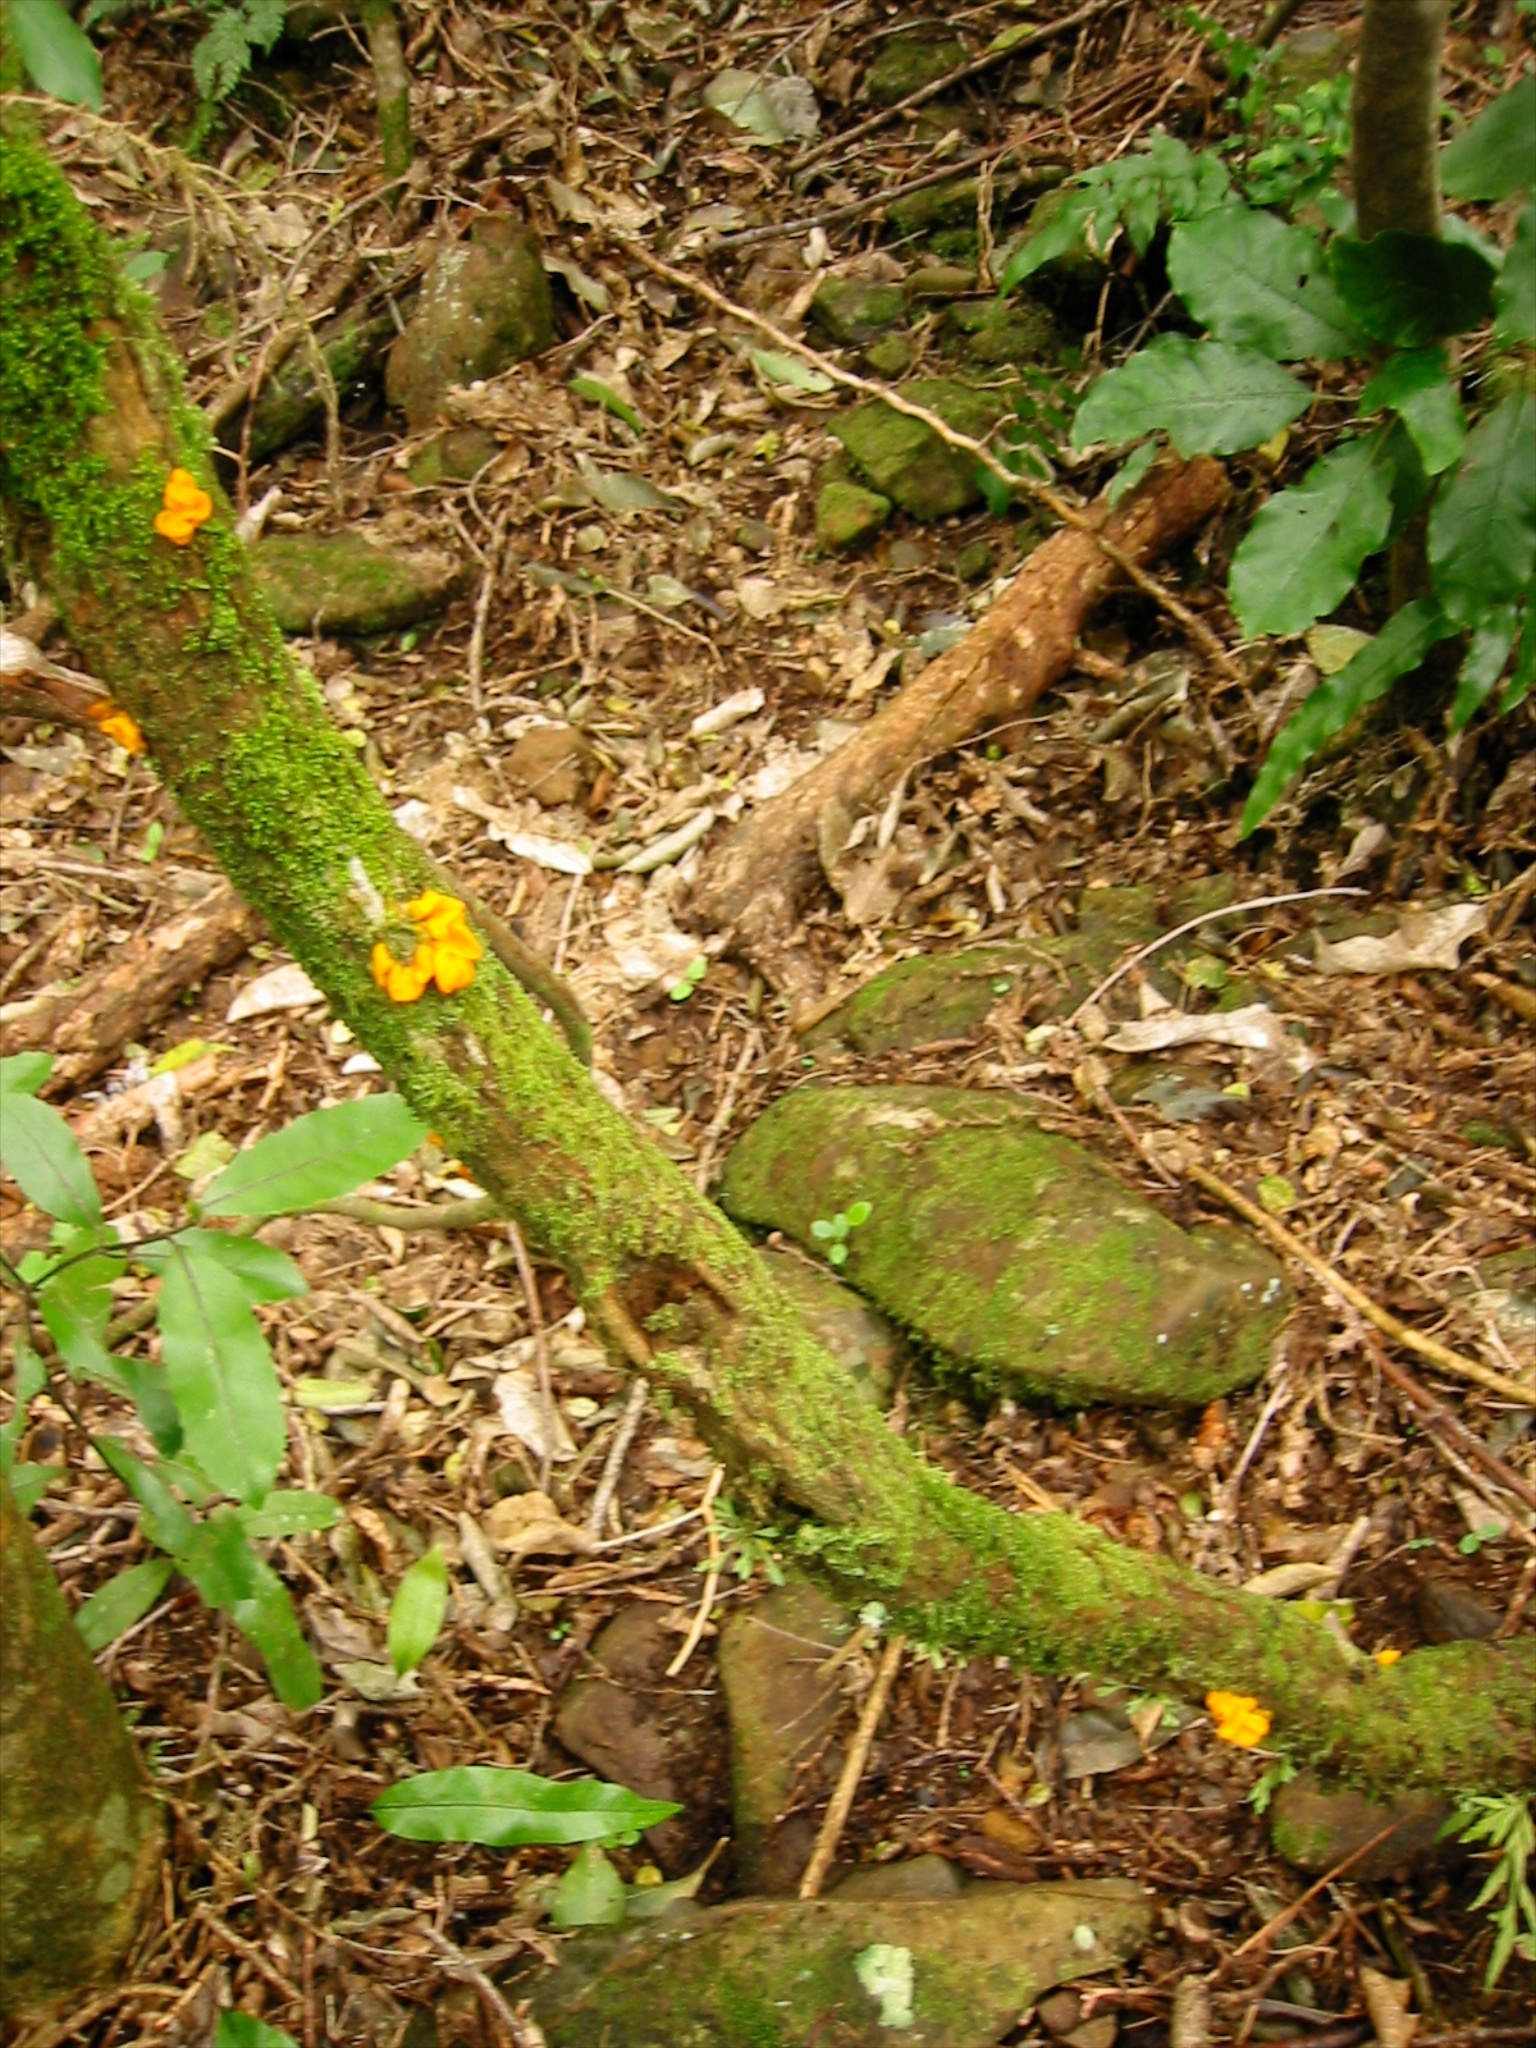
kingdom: Fungi
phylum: Basidiomycota
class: Tremellomycetes
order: Tremellales
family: Tremellaceae
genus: Tremella
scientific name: Tremella mesenterica
